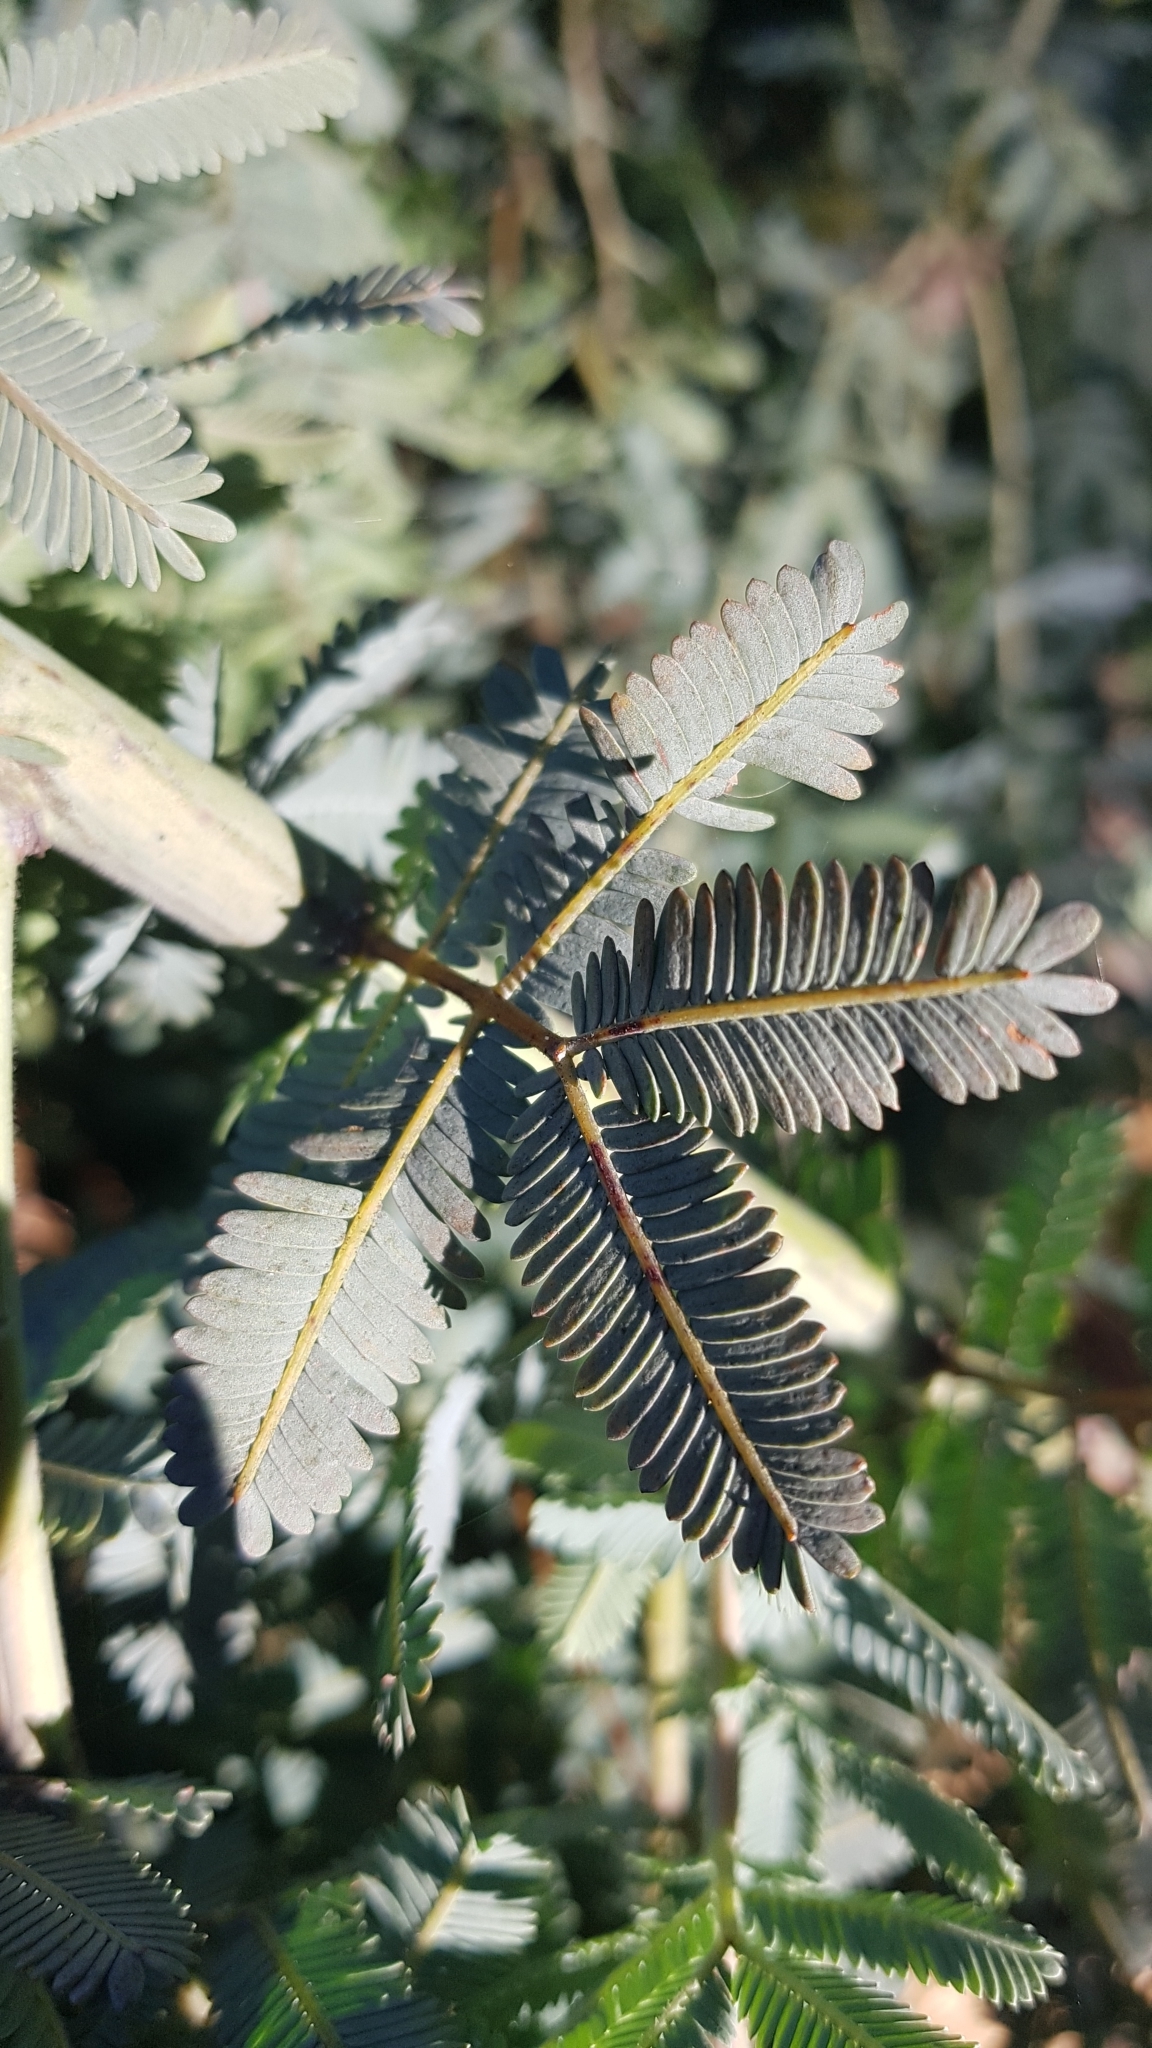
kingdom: Plantae
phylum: Tracheophyta
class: Magnoliopsida
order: Fabales
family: Fabaceae
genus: Acacia
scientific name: Acacia baileyana
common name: Cootamundra wattle
